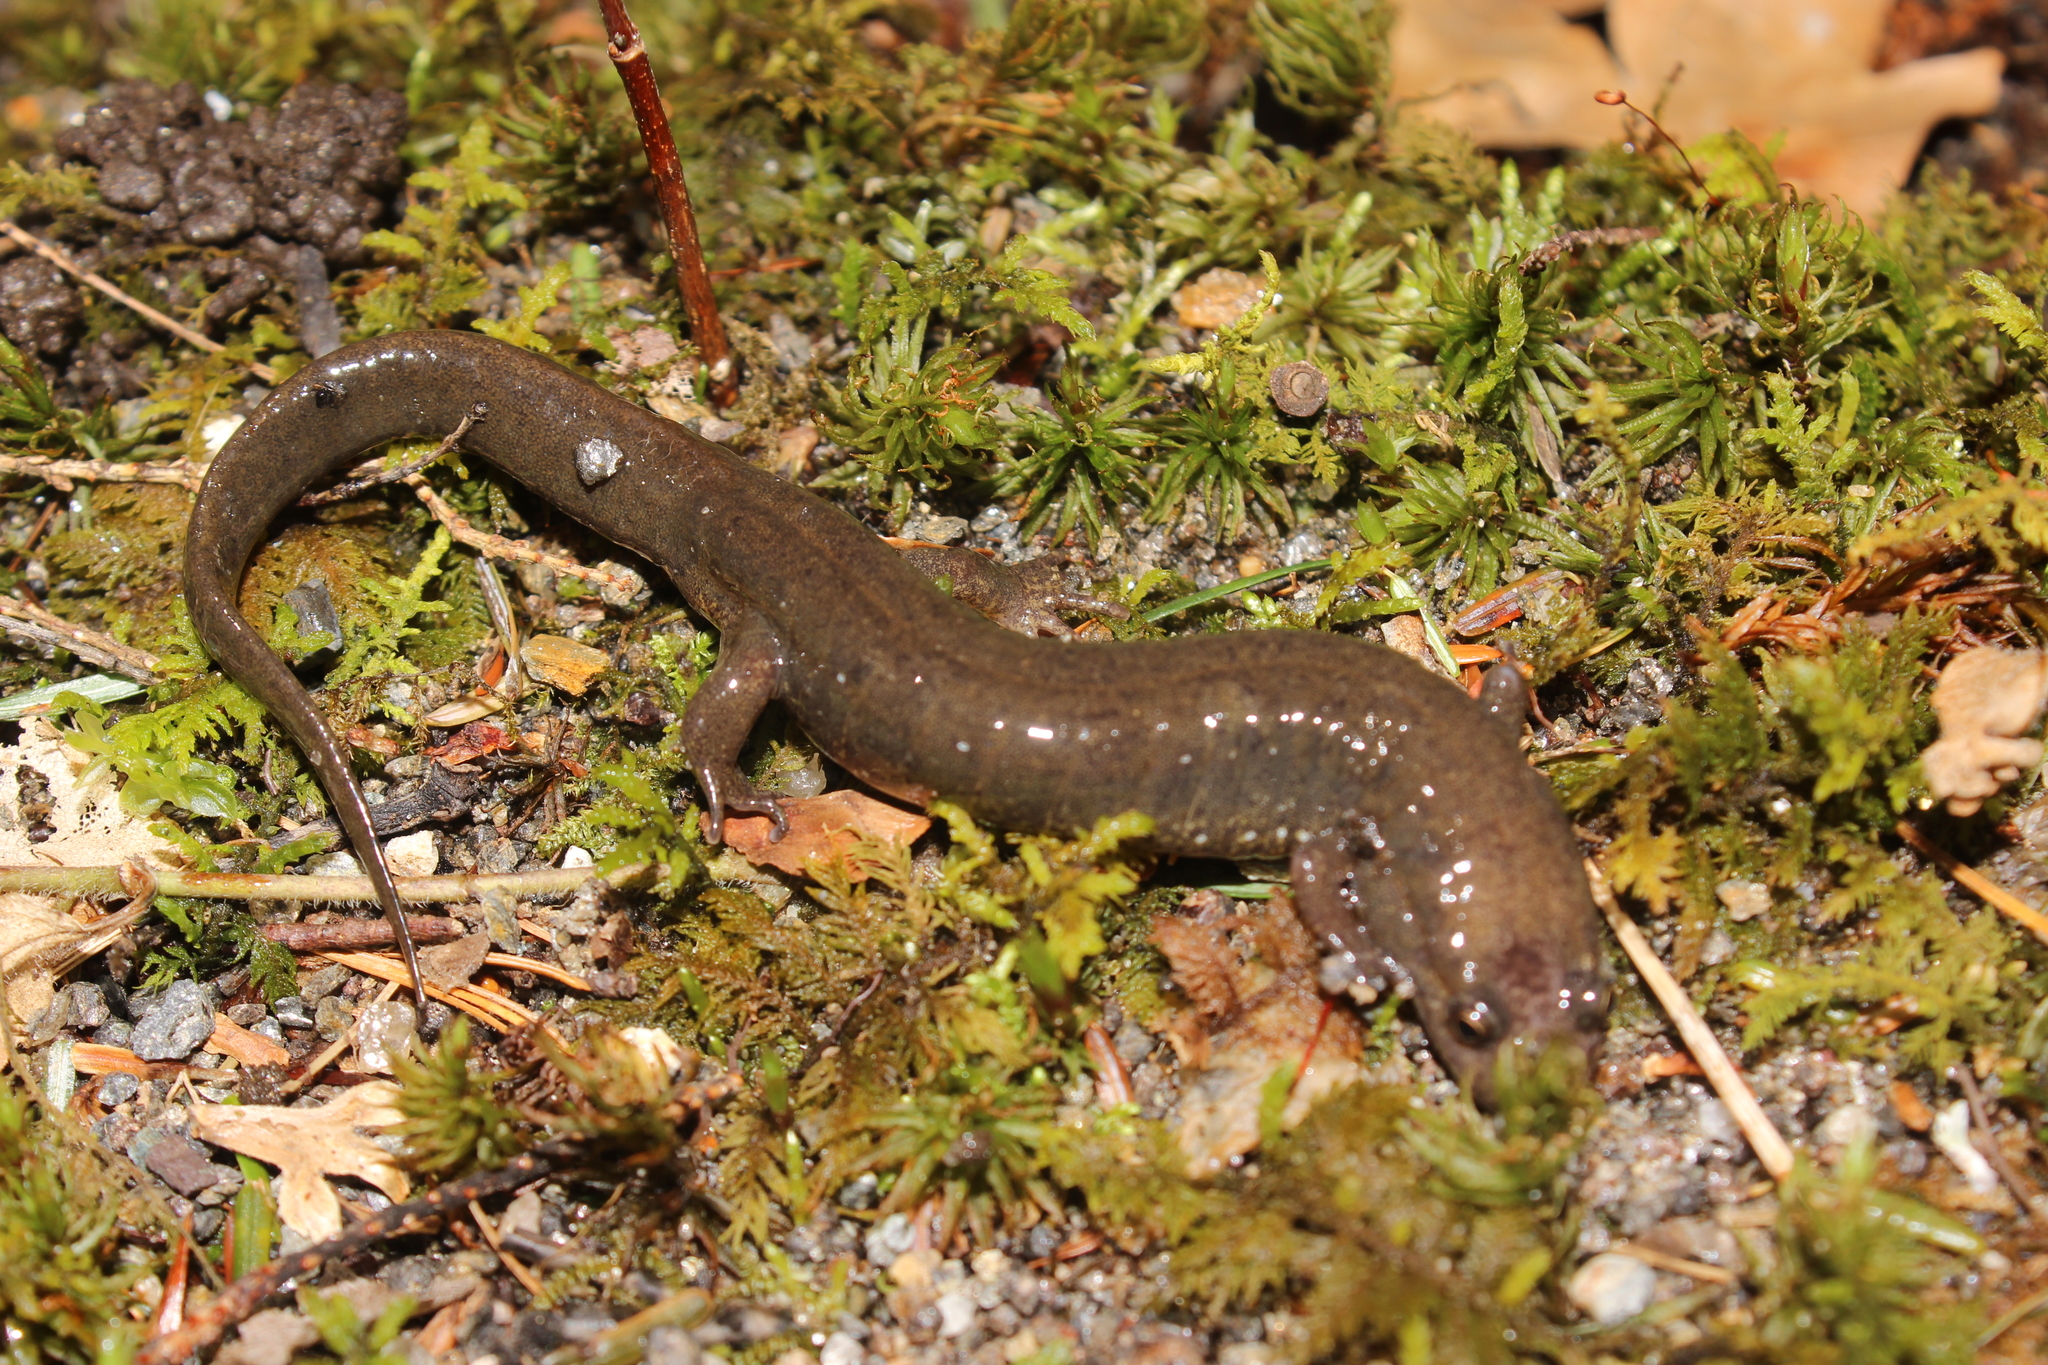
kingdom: Animalia
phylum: Chordata
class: Amphibia
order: Caudata
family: Plethodontidae
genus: Desmognathus
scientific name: Desmognathus fuscus
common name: Northern dusky salamander
